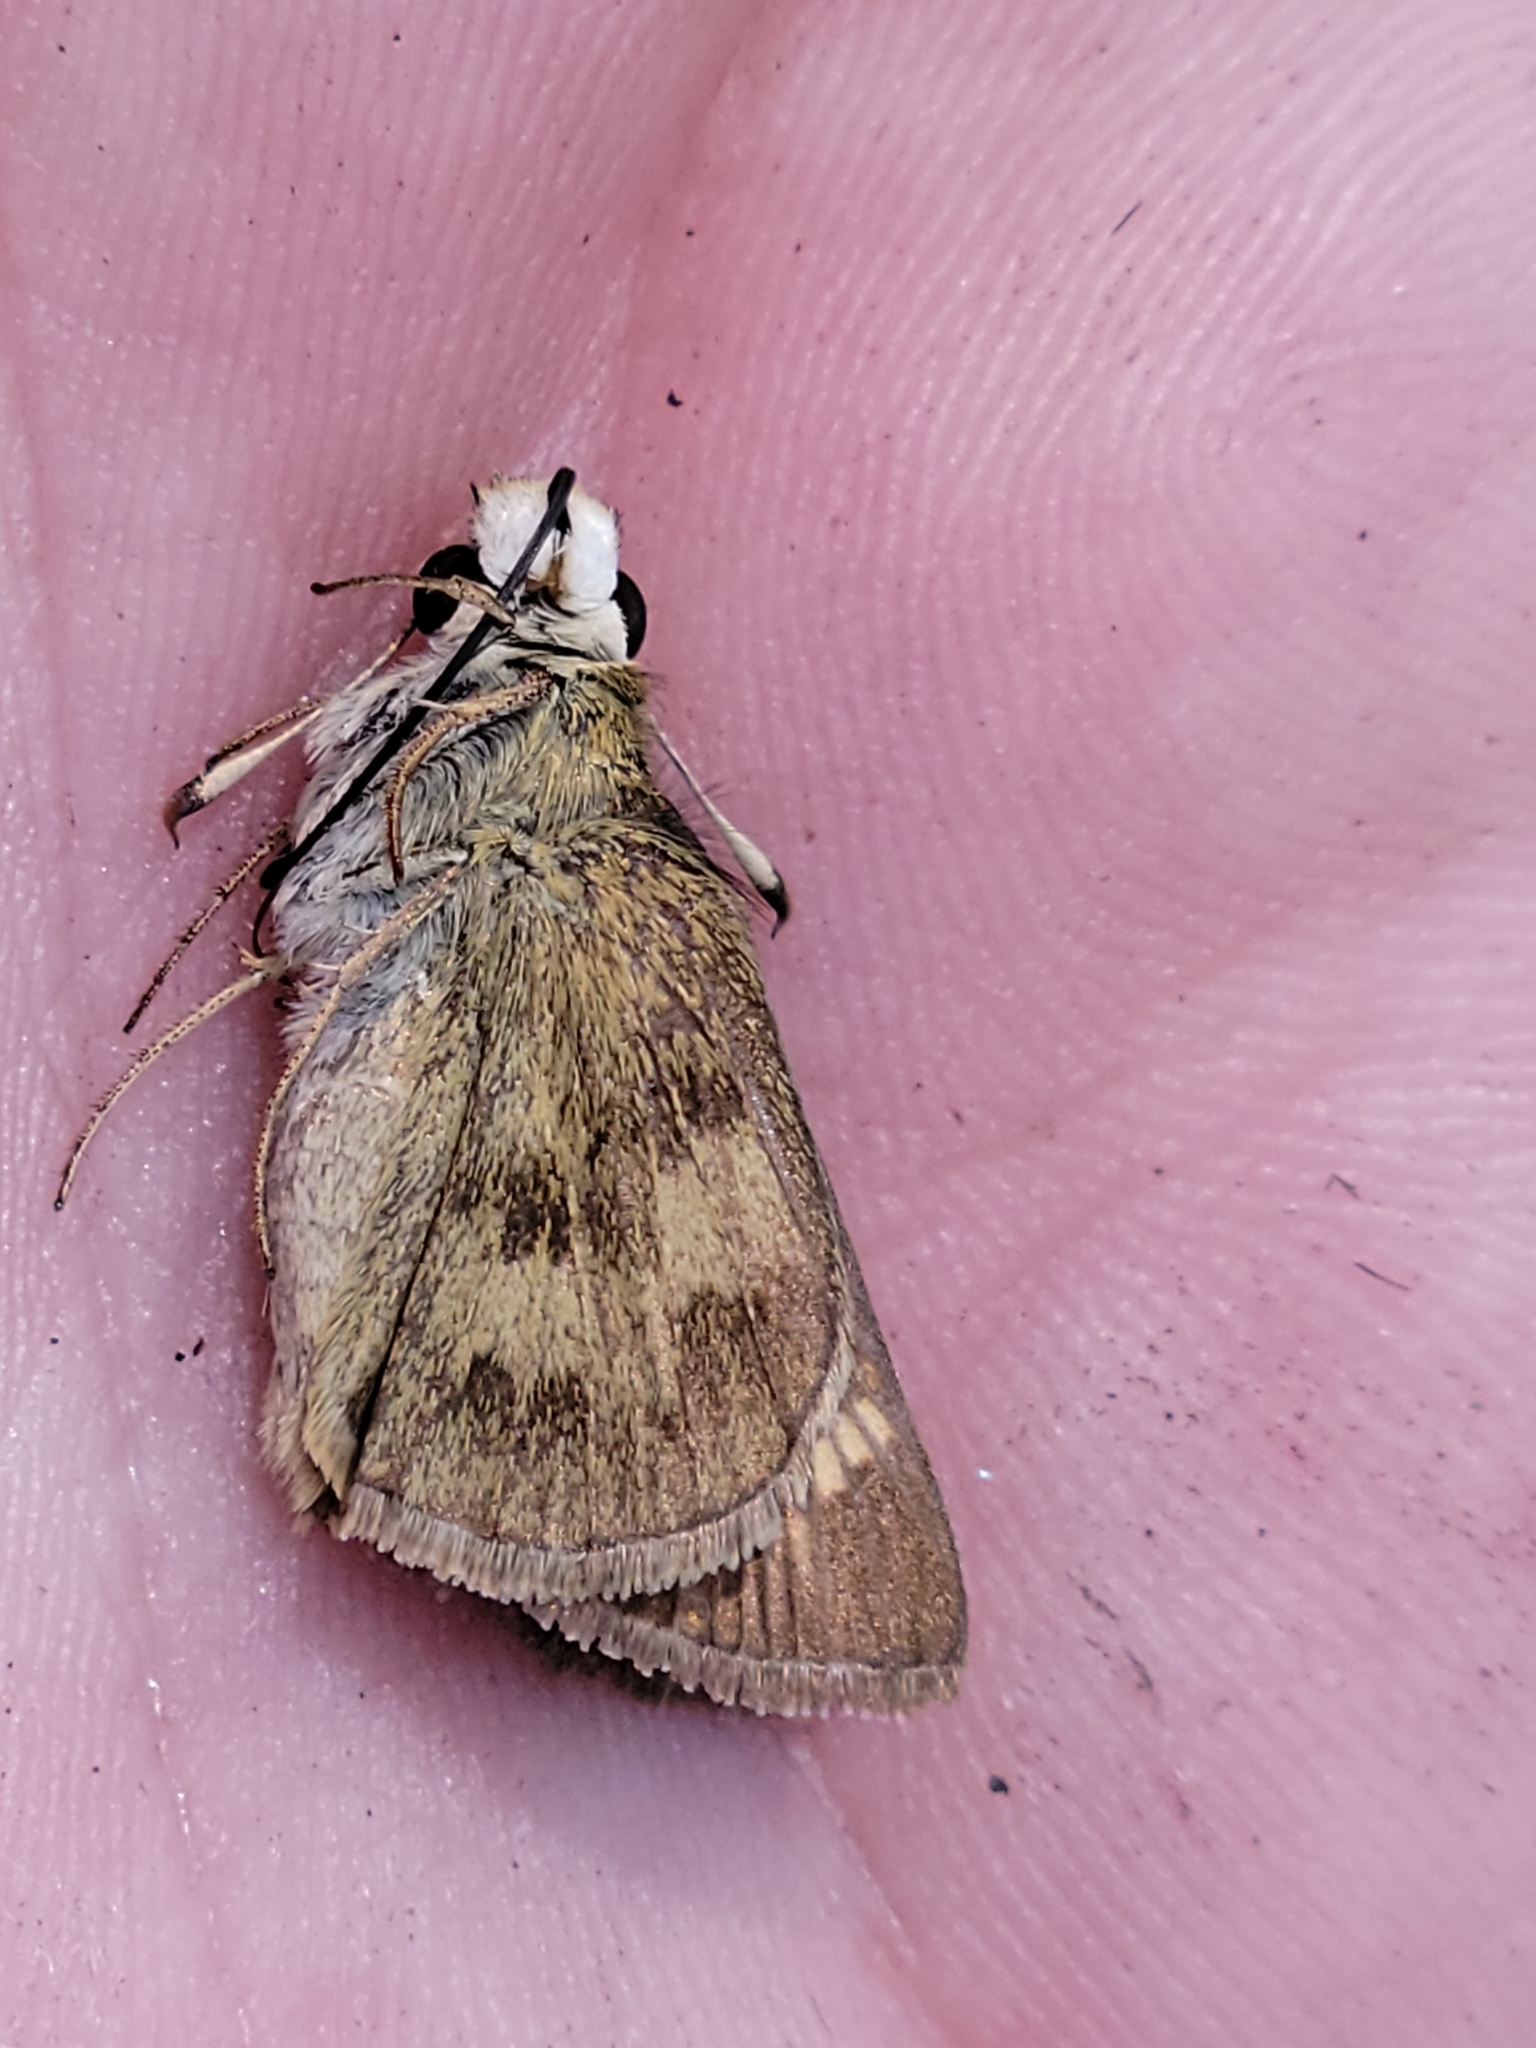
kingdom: Animalia
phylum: Arthropoda
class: Insecta
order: Lepidoptera
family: Hesperiidae
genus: Polites
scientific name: Polites vibex
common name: Whirlabout
